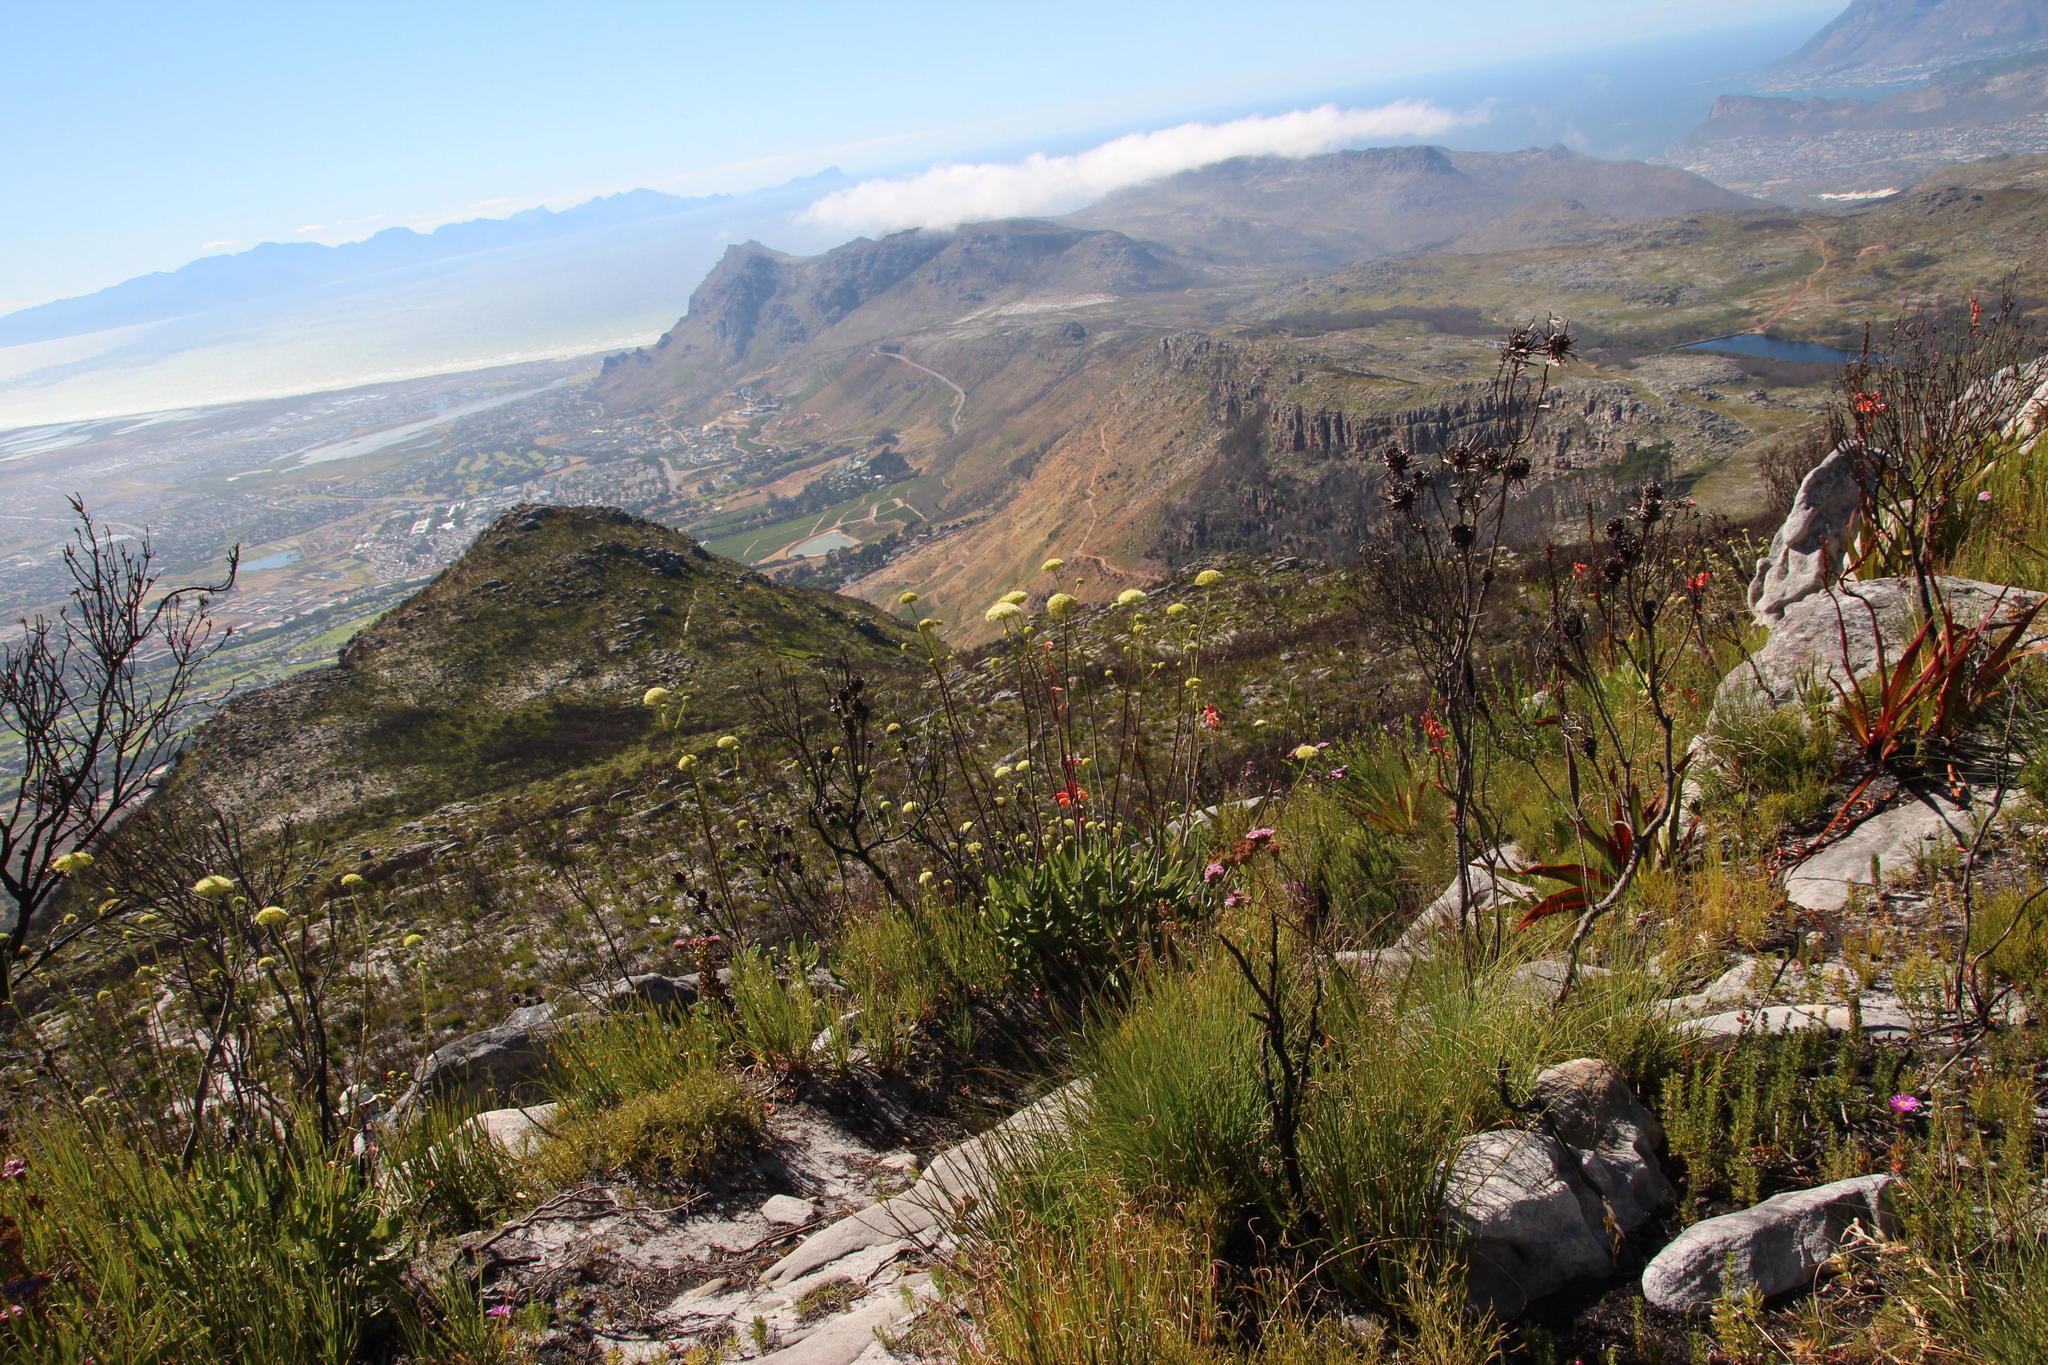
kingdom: Plantae
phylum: Tracheophyta
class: Magnoliopsida
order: Apiales
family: Apiaceae
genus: Hermas
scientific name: Hermas villosa
